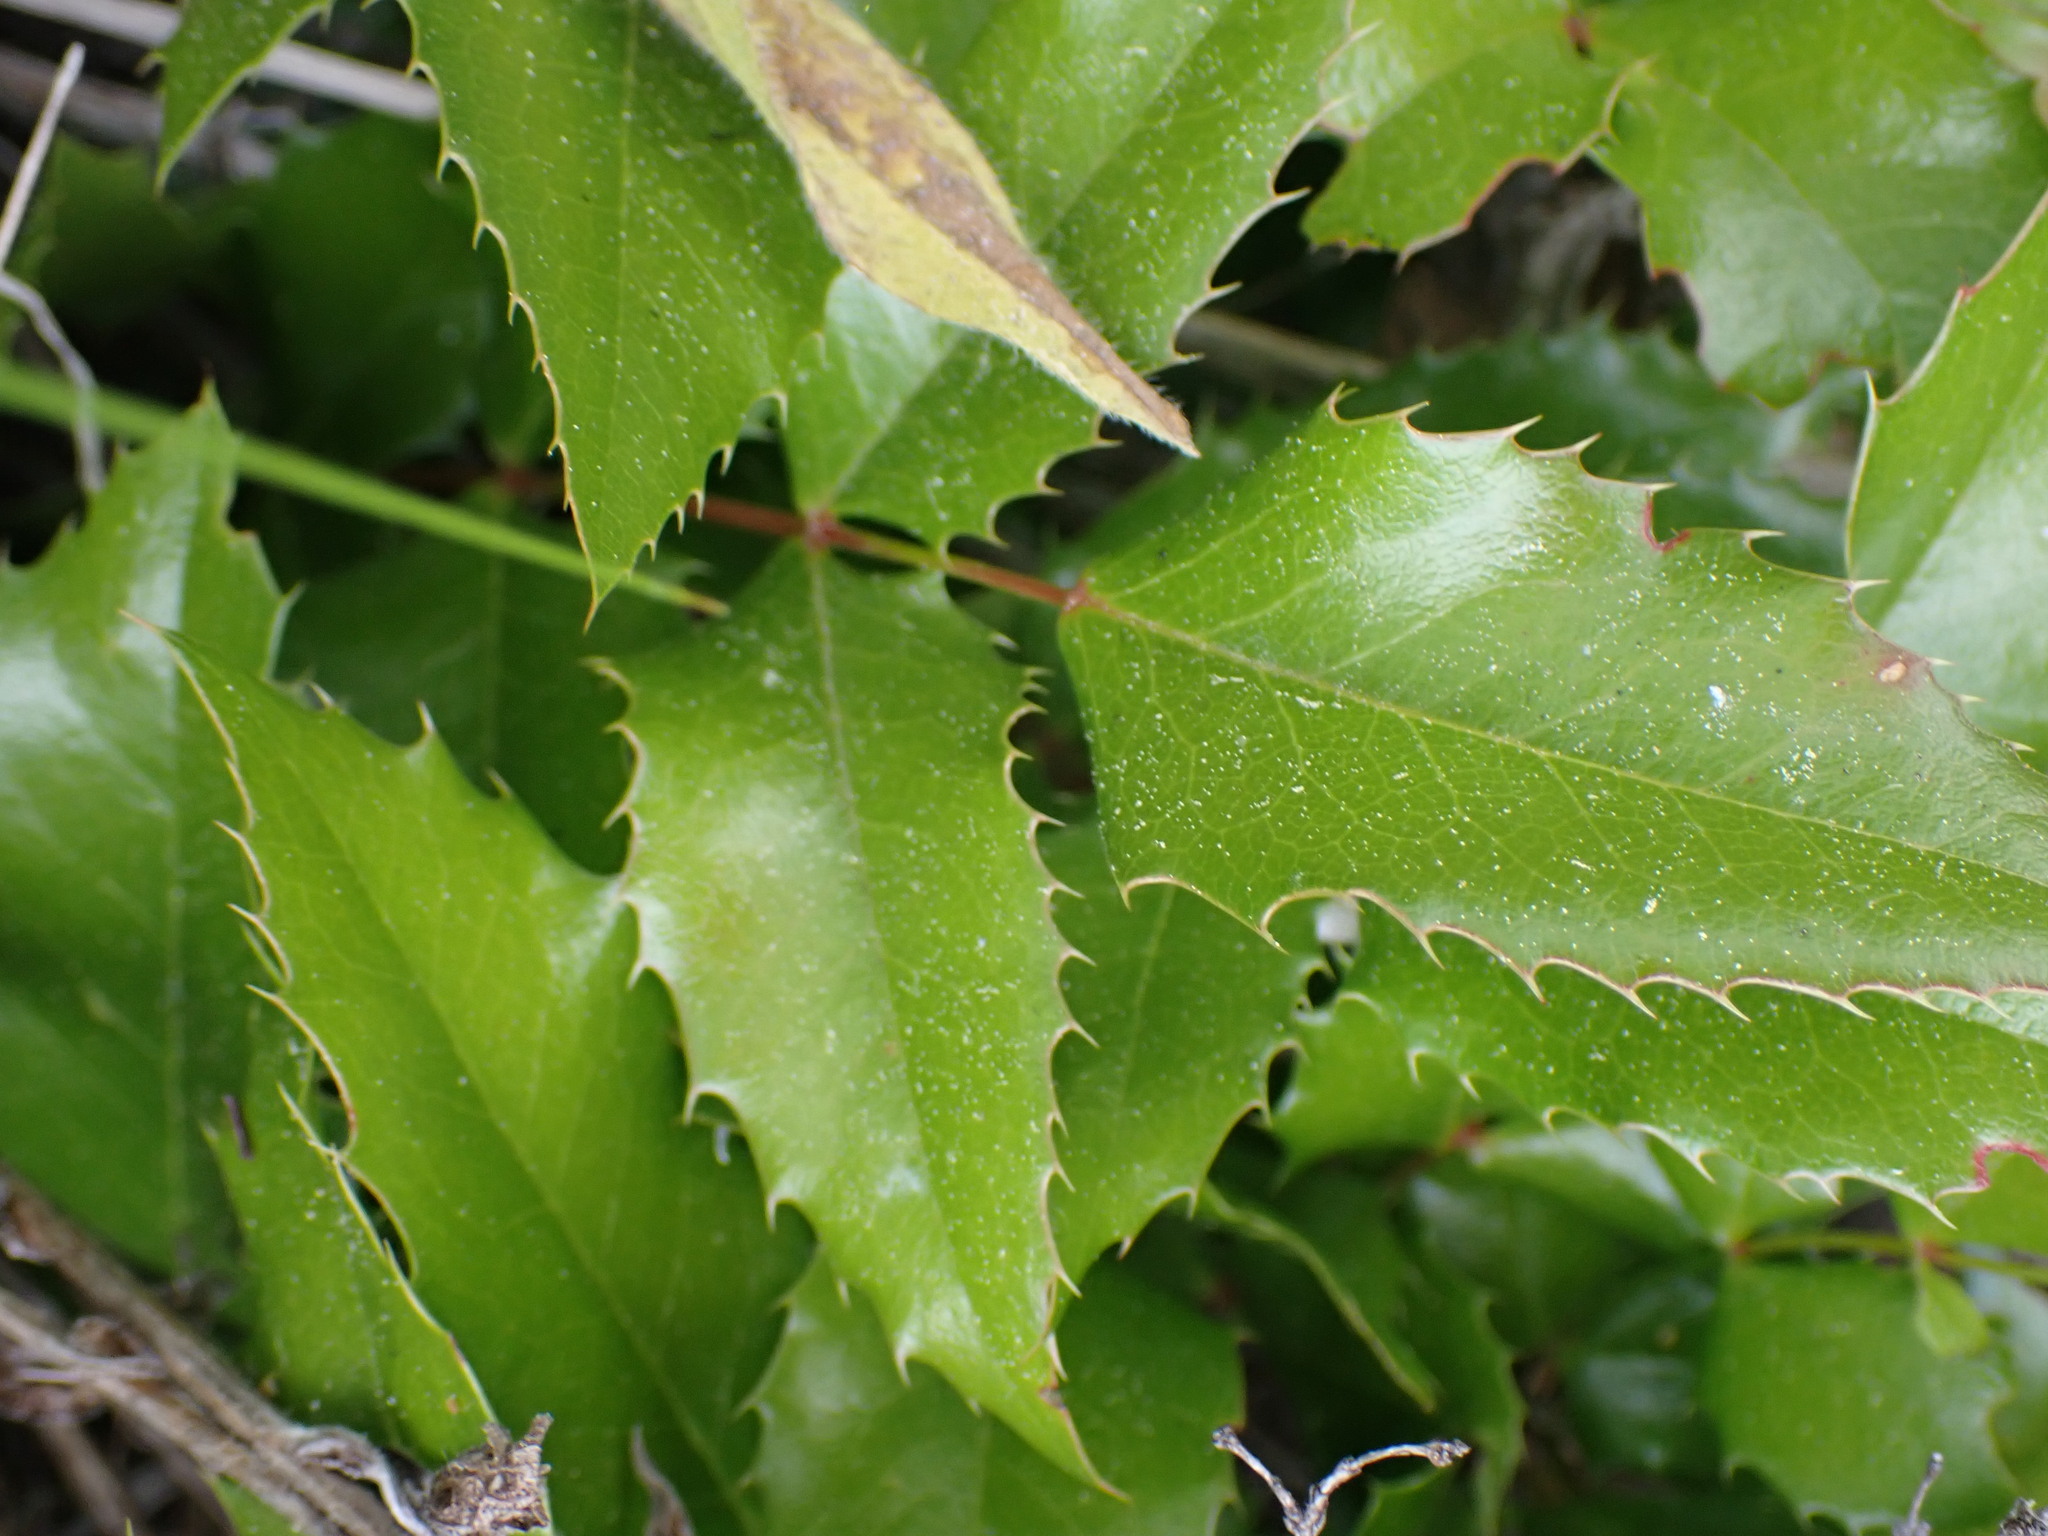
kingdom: Plantae
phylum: Tracheophyta
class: Magnoliopsida
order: Ranunculales
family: Berberidaceae
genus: Mahonia
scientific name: Mahonia aquifolium
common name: Oregon-grape
